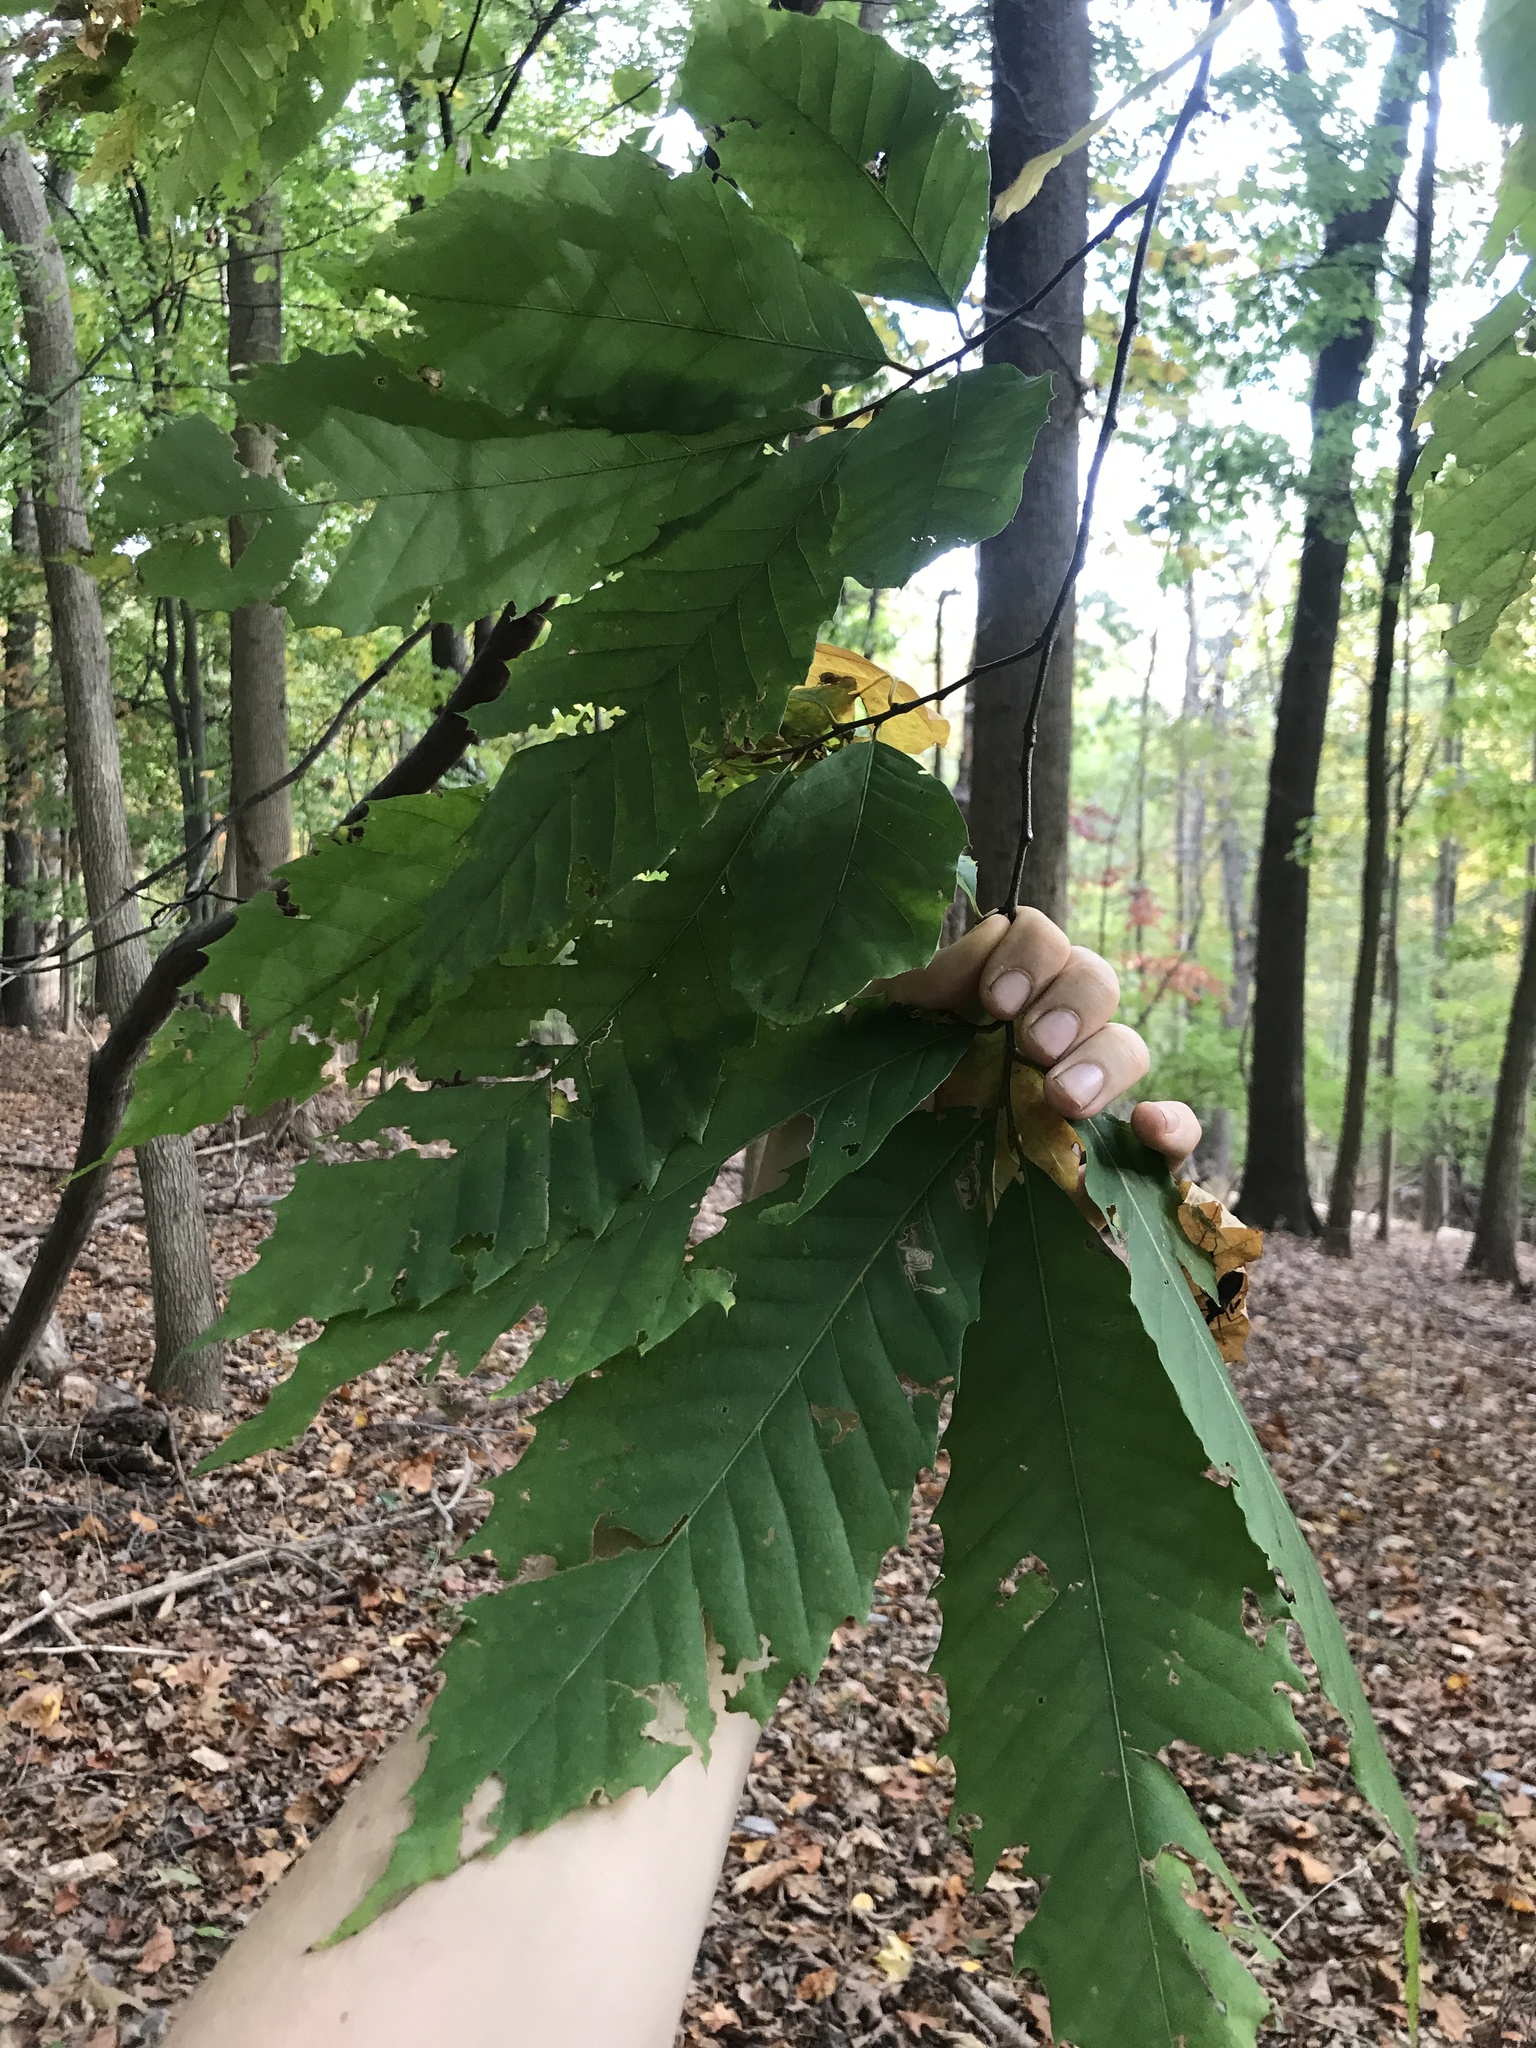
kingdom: Plantae
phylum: Tracheophyta
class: Magnoliopsida
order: Fagales
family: Fagaceae
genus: Castanea
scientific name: Castanea dentata
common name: American chestnut
